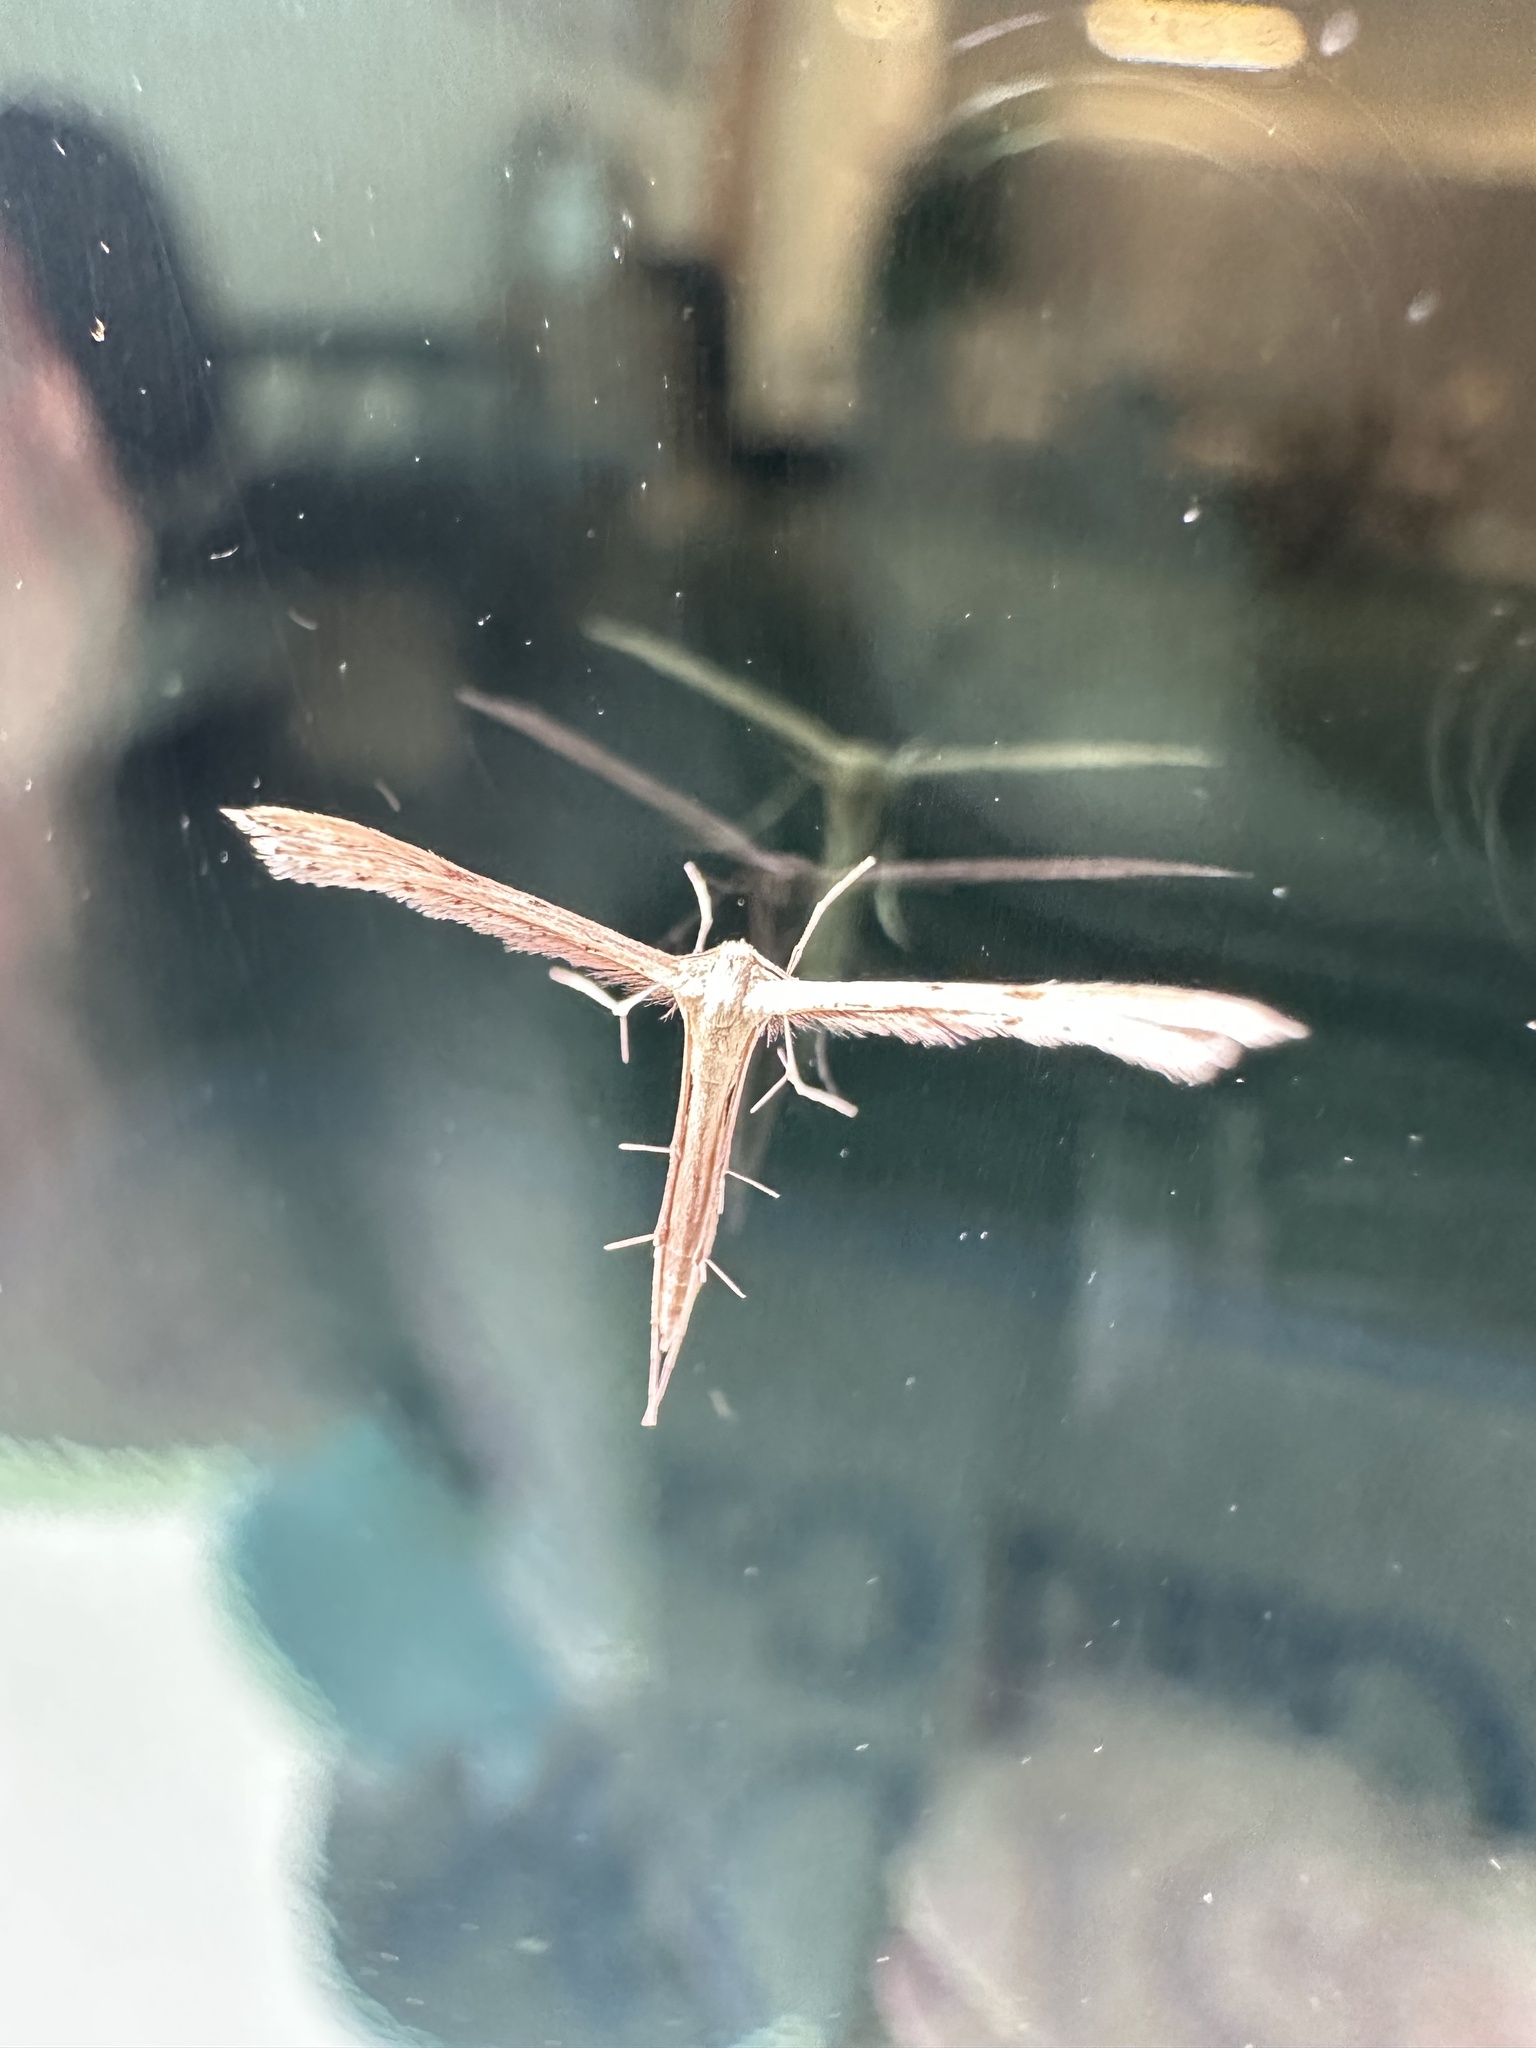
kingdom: Animalia
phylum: Arthropoda
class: Insecta
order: Lepidoptera
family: Pterophoridae
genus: Exelastis
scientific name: Exelastis pumilio
